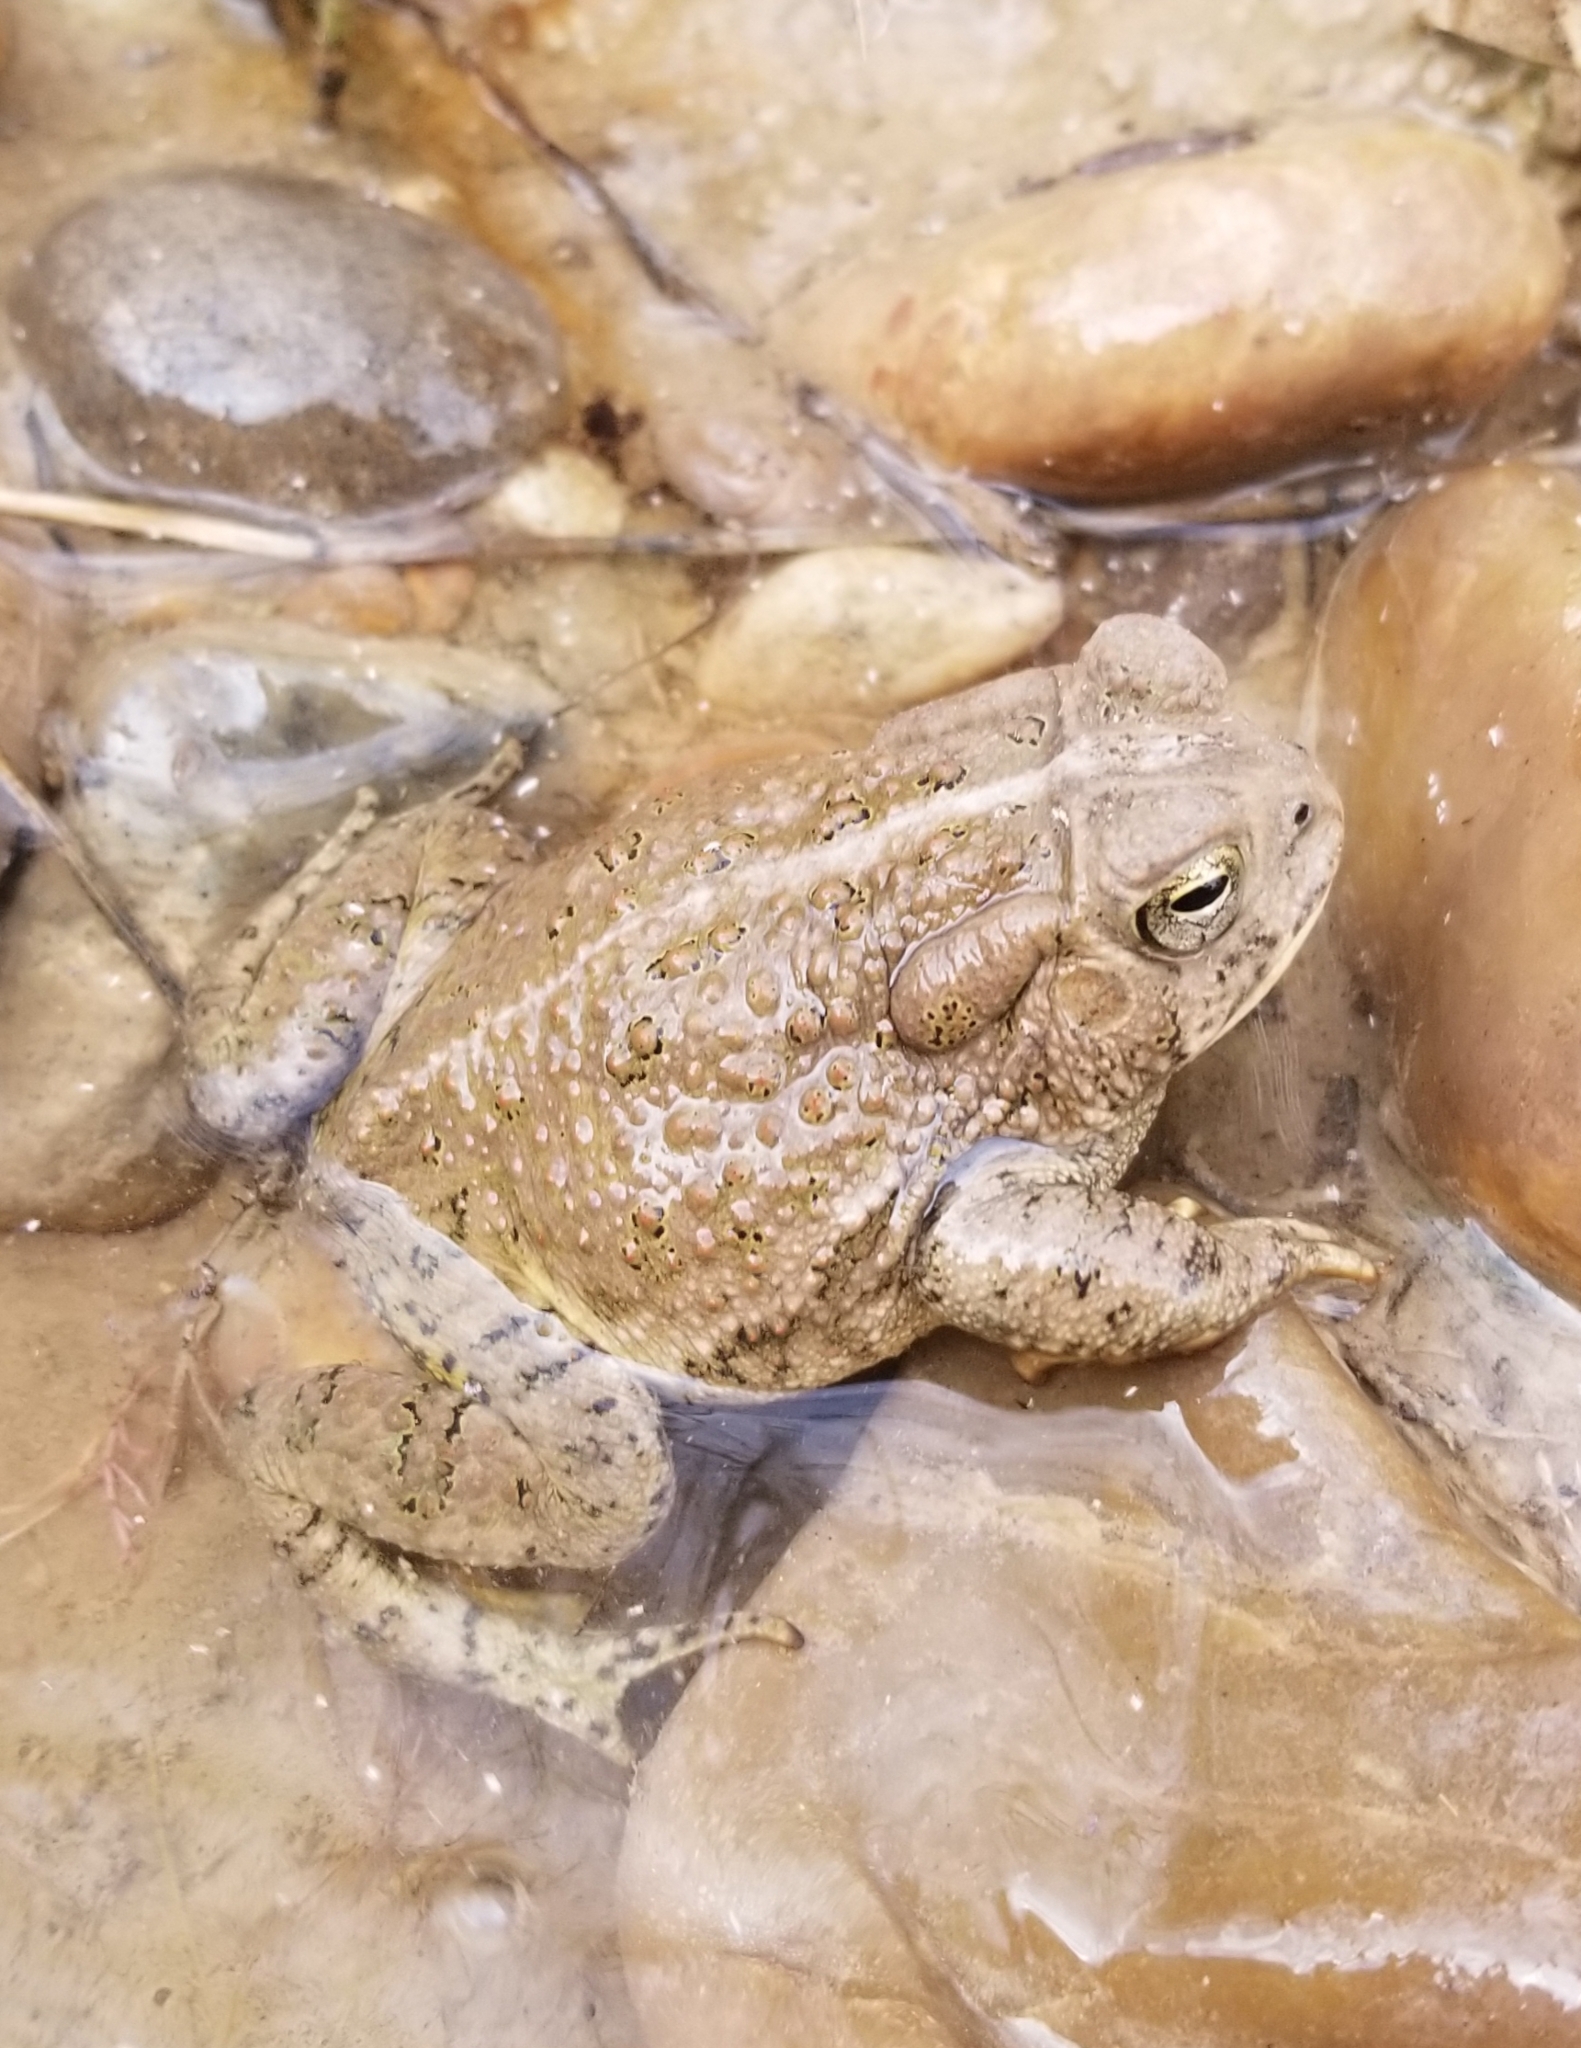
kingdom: Animalia
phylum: Chordata
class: Amphibia
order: Anura
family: Bufonidae
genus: Anaxyrus
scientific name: Anaxyrus woodhousii
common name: Woodhouse's toad
